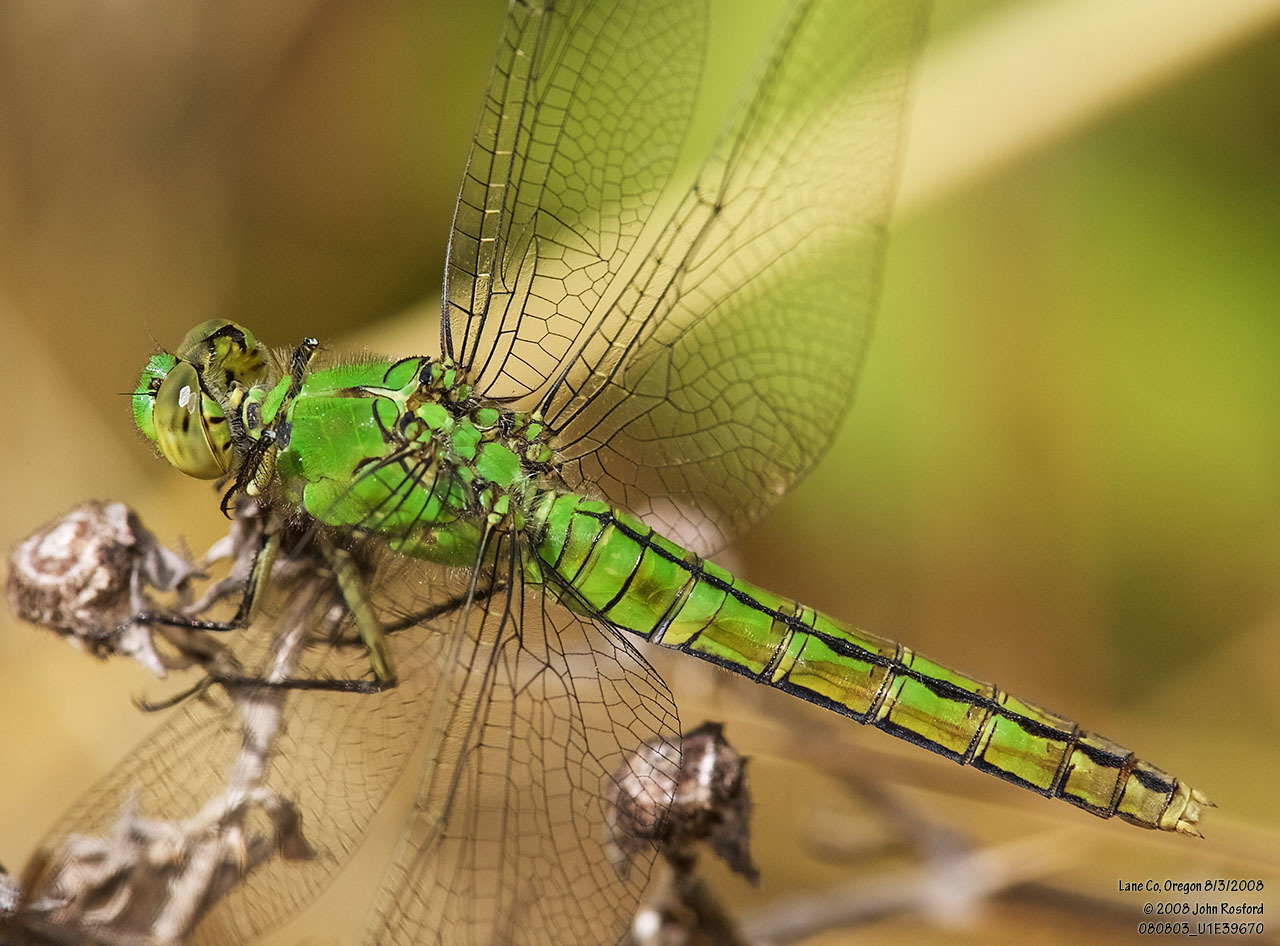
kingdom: Animalia
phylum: Arthropoda
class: Insecta
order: Odonata
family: Libellulidae
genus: Erythemis
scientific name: Erythemis collocata
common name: Western pondhawk
